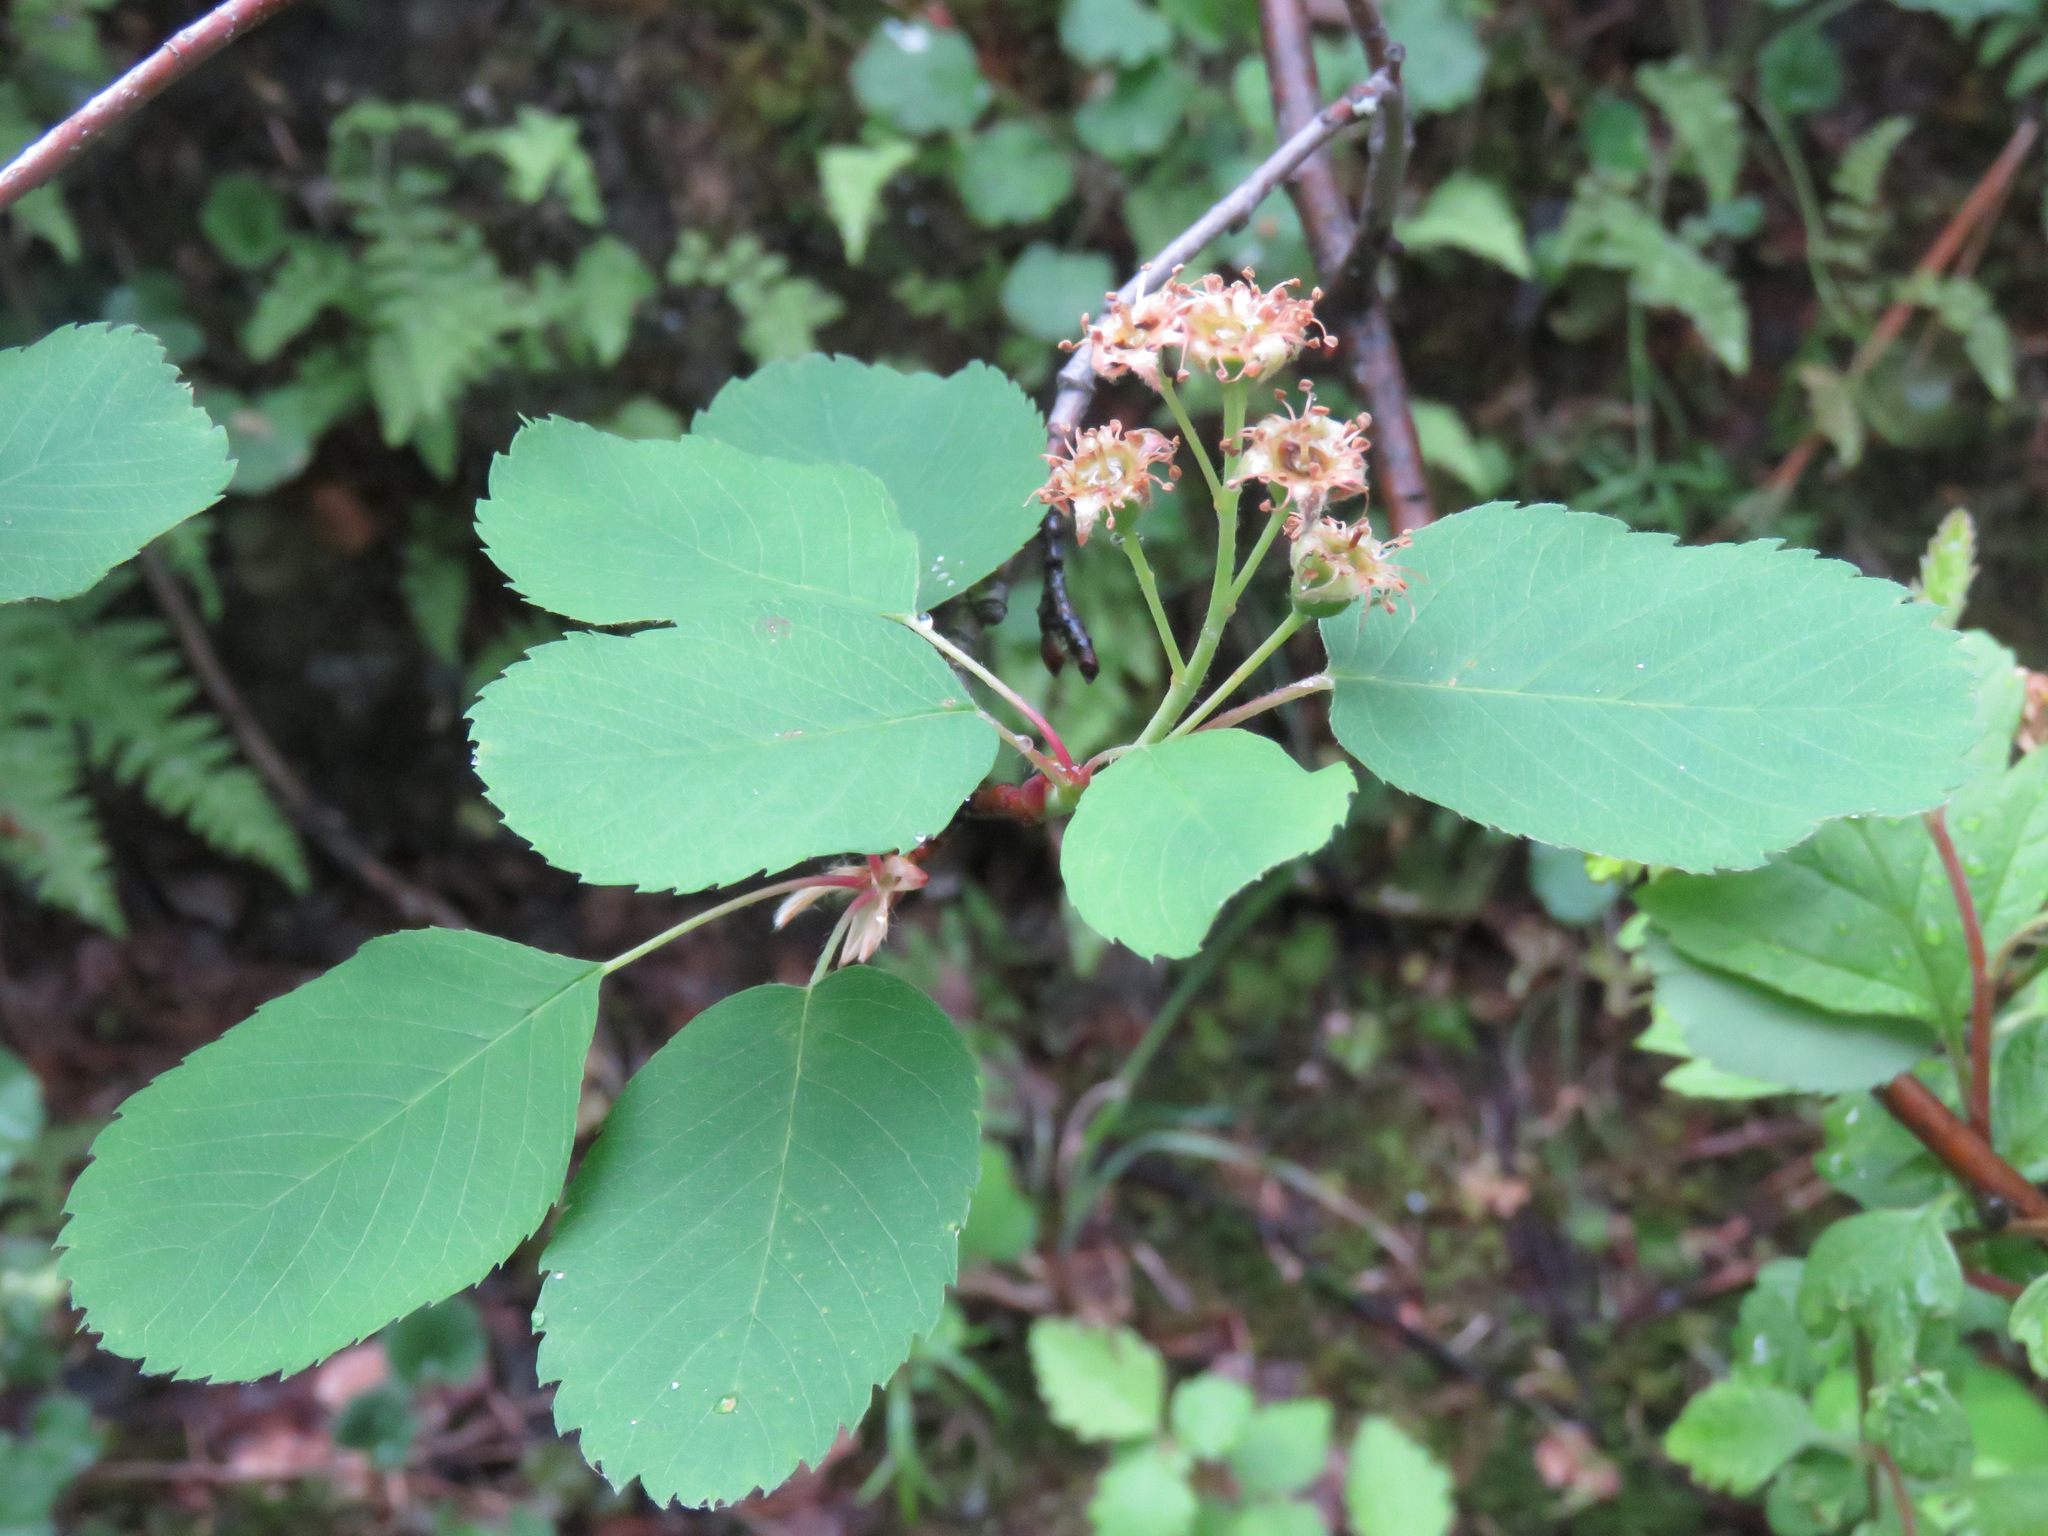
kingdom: Plantae
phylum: Tracheophyta
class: Magnoliopsida
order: Rosales
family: Rosaceae
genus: Amelanchier
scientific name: Amelanchier alnifolia
